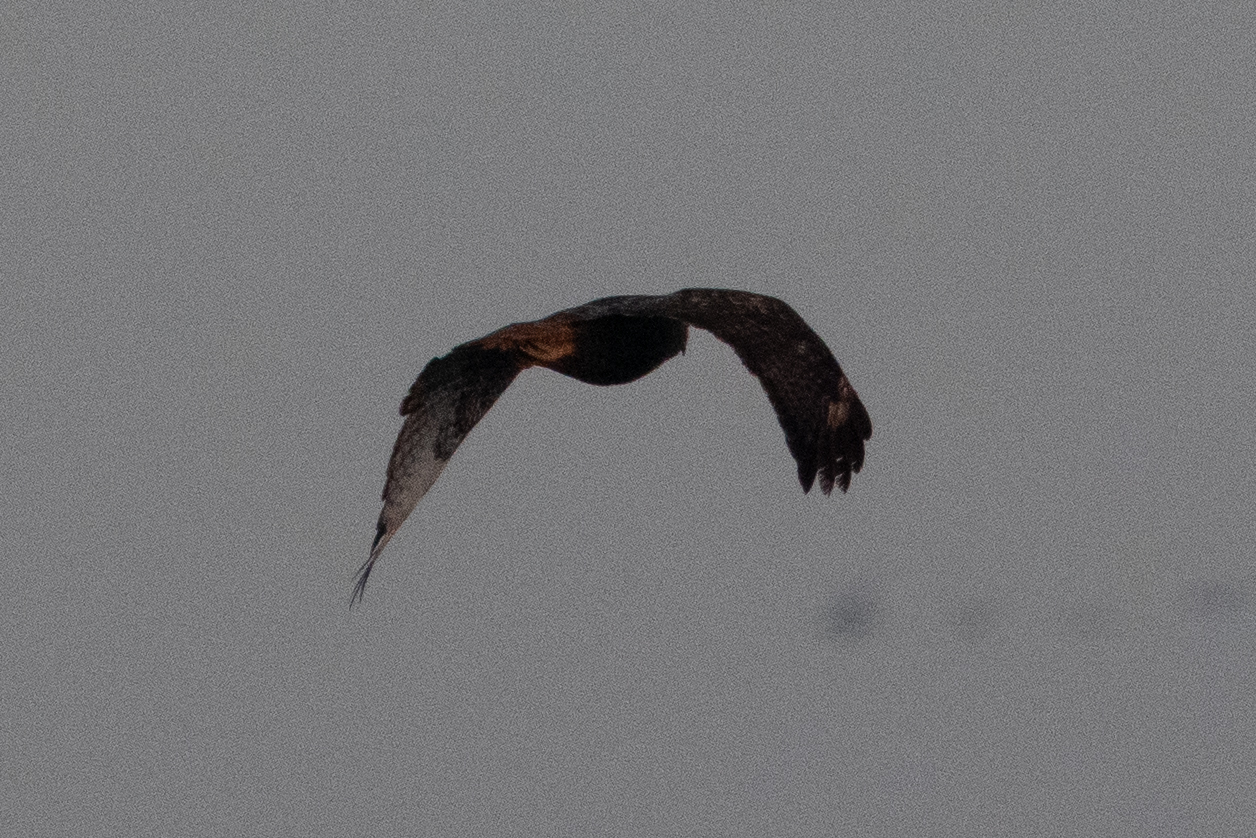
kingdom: Animalia
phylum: Chordata
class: Aves
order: Accipitriformes
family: Accipitridae
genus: Buteo
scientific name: Buteo jamaicensis
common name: Red-tailed hawk
